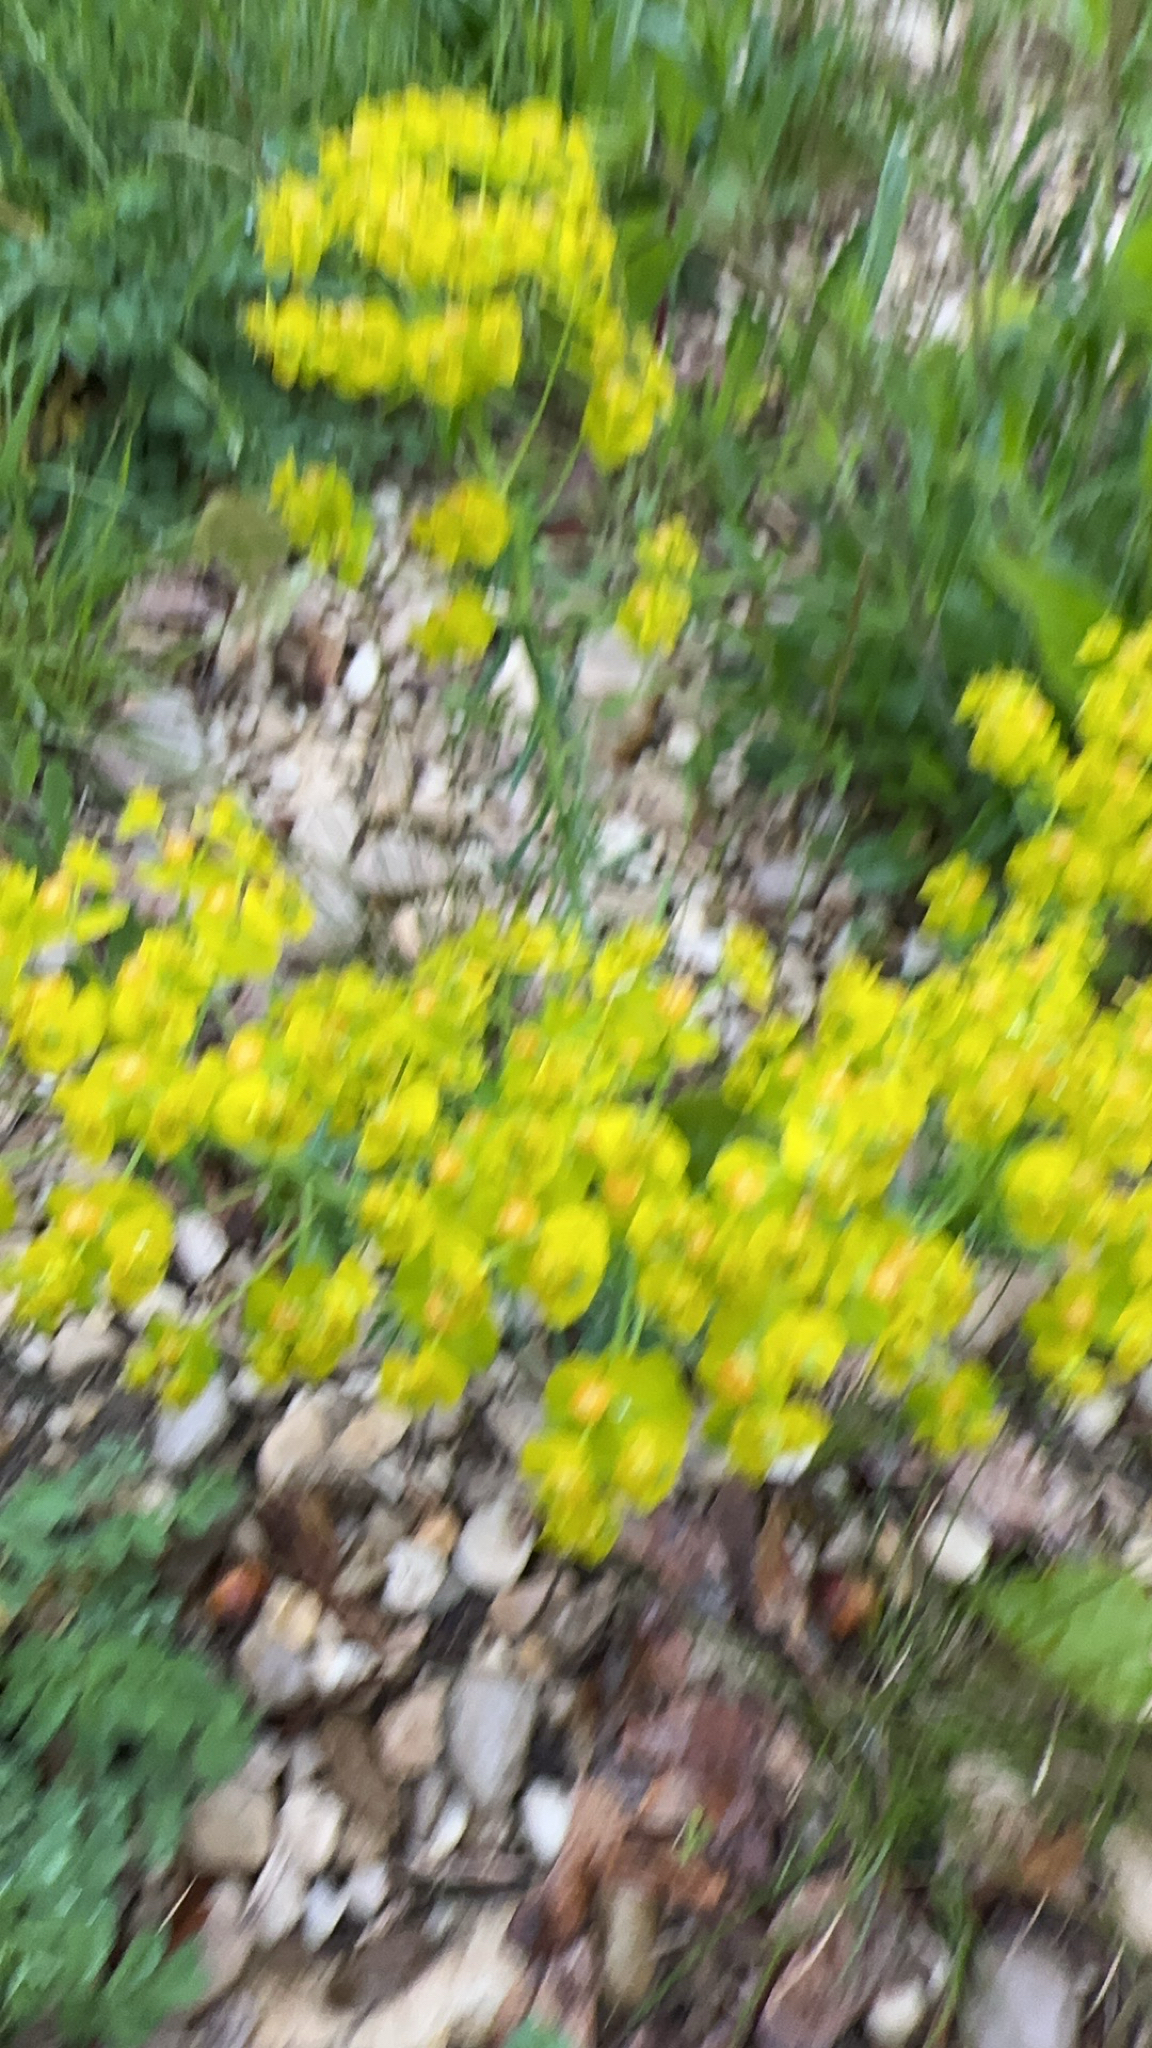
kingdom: Plantae
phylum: Tracheophyta
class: Magnoliopsida
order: Malpighiales
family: Euphorbiaceae
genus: Euphorbia
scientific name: Euphorbia cyparissias
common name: Cypress spurge
